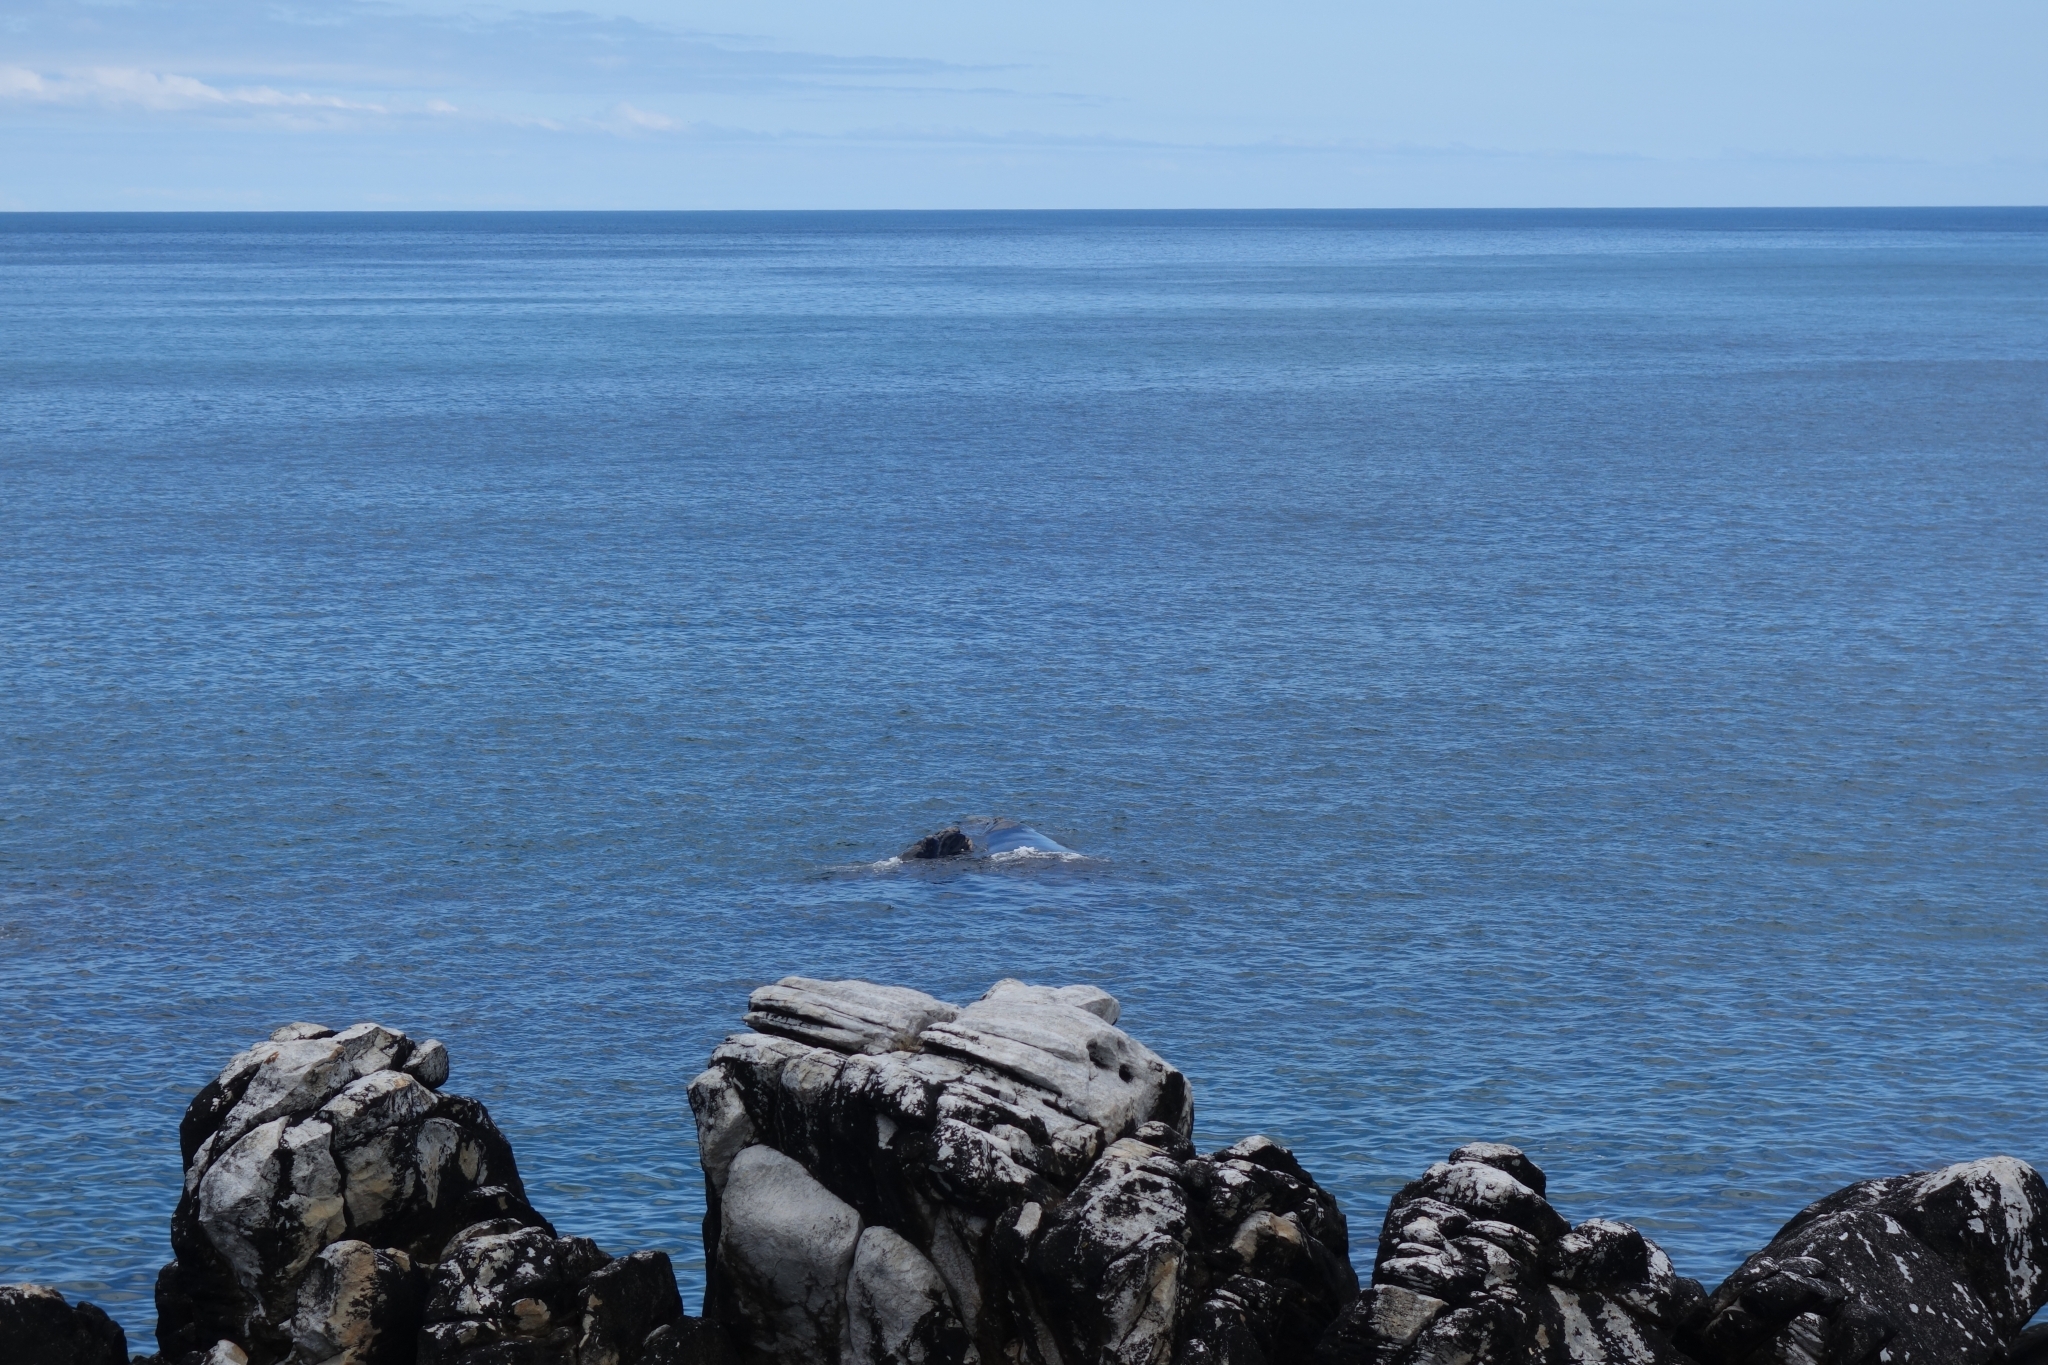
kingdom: Animalia
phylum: Chordata
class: Mammalia
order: Cetacea
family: Balaenidae
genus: Eubalaena
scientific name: Eubalaena australis
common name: Southern right whale
